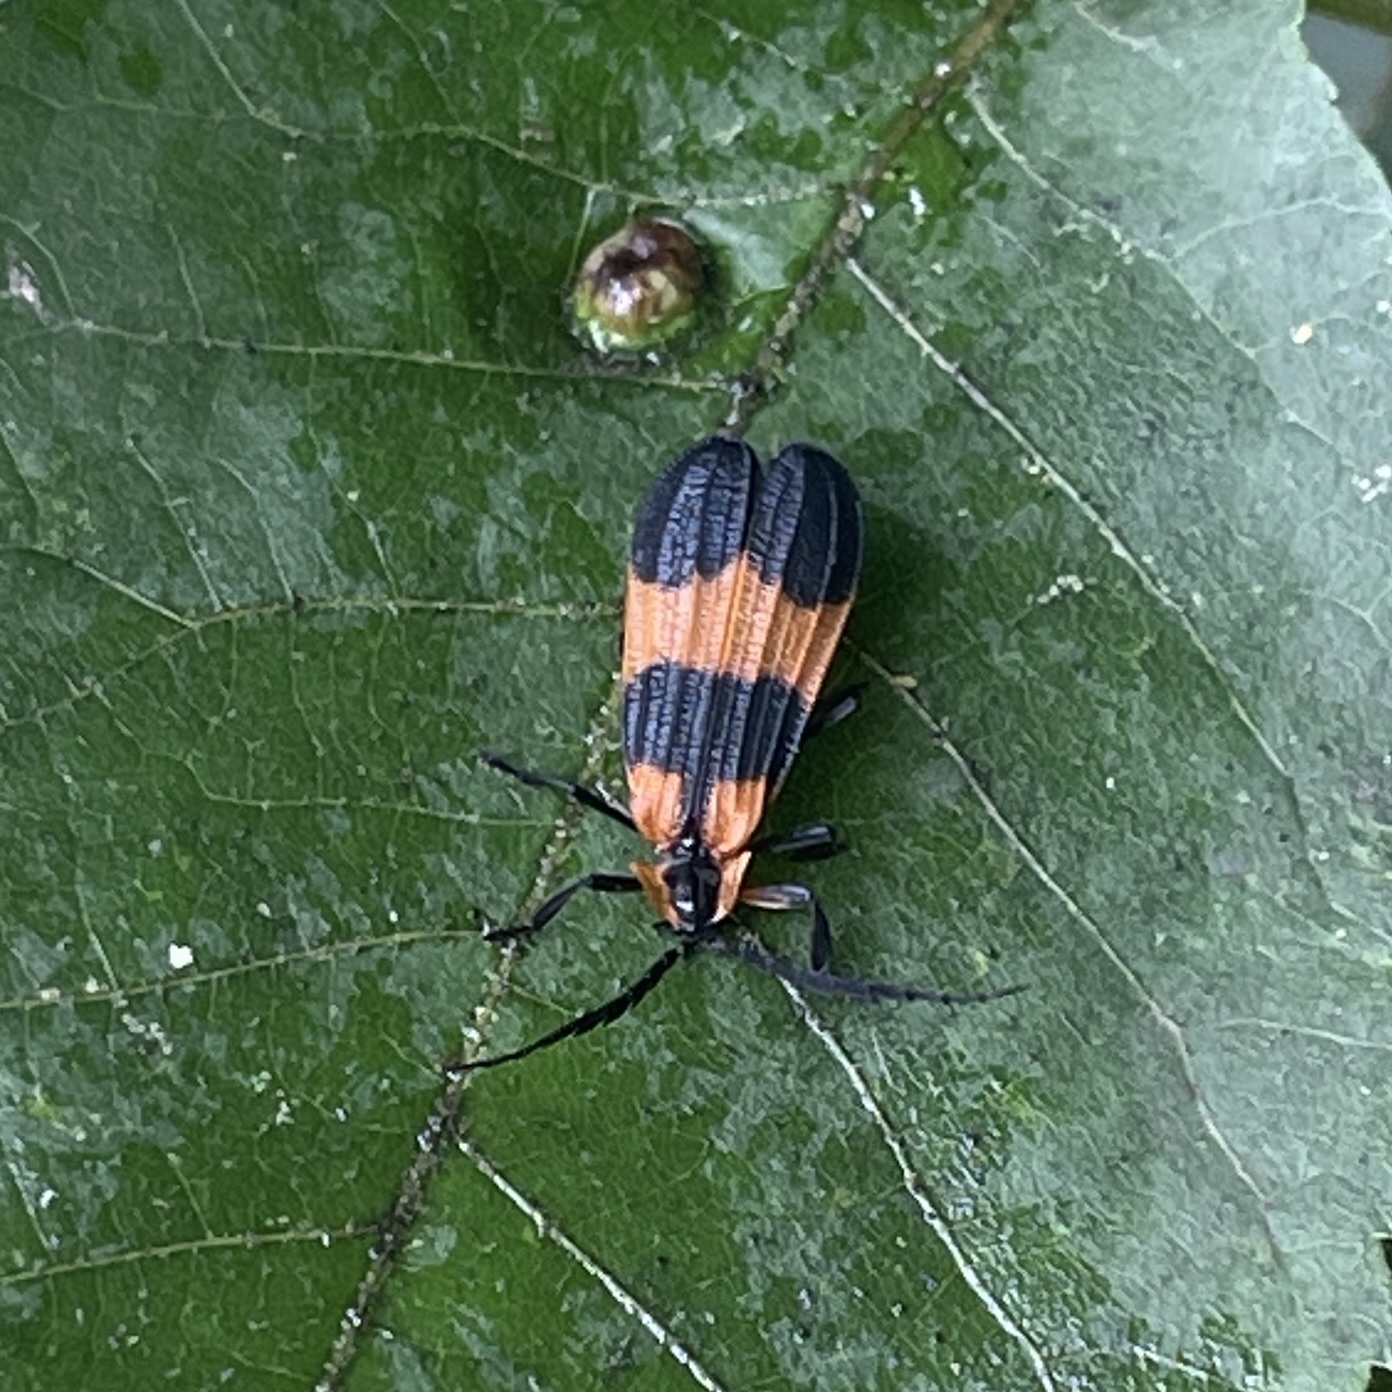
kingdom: Animalia
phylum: Arthropoda
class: Insecta
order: Coleoptera
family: Lycidae
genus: Calopteron
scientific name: Calopteron reticulatum
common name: Banded net-winged beetle
